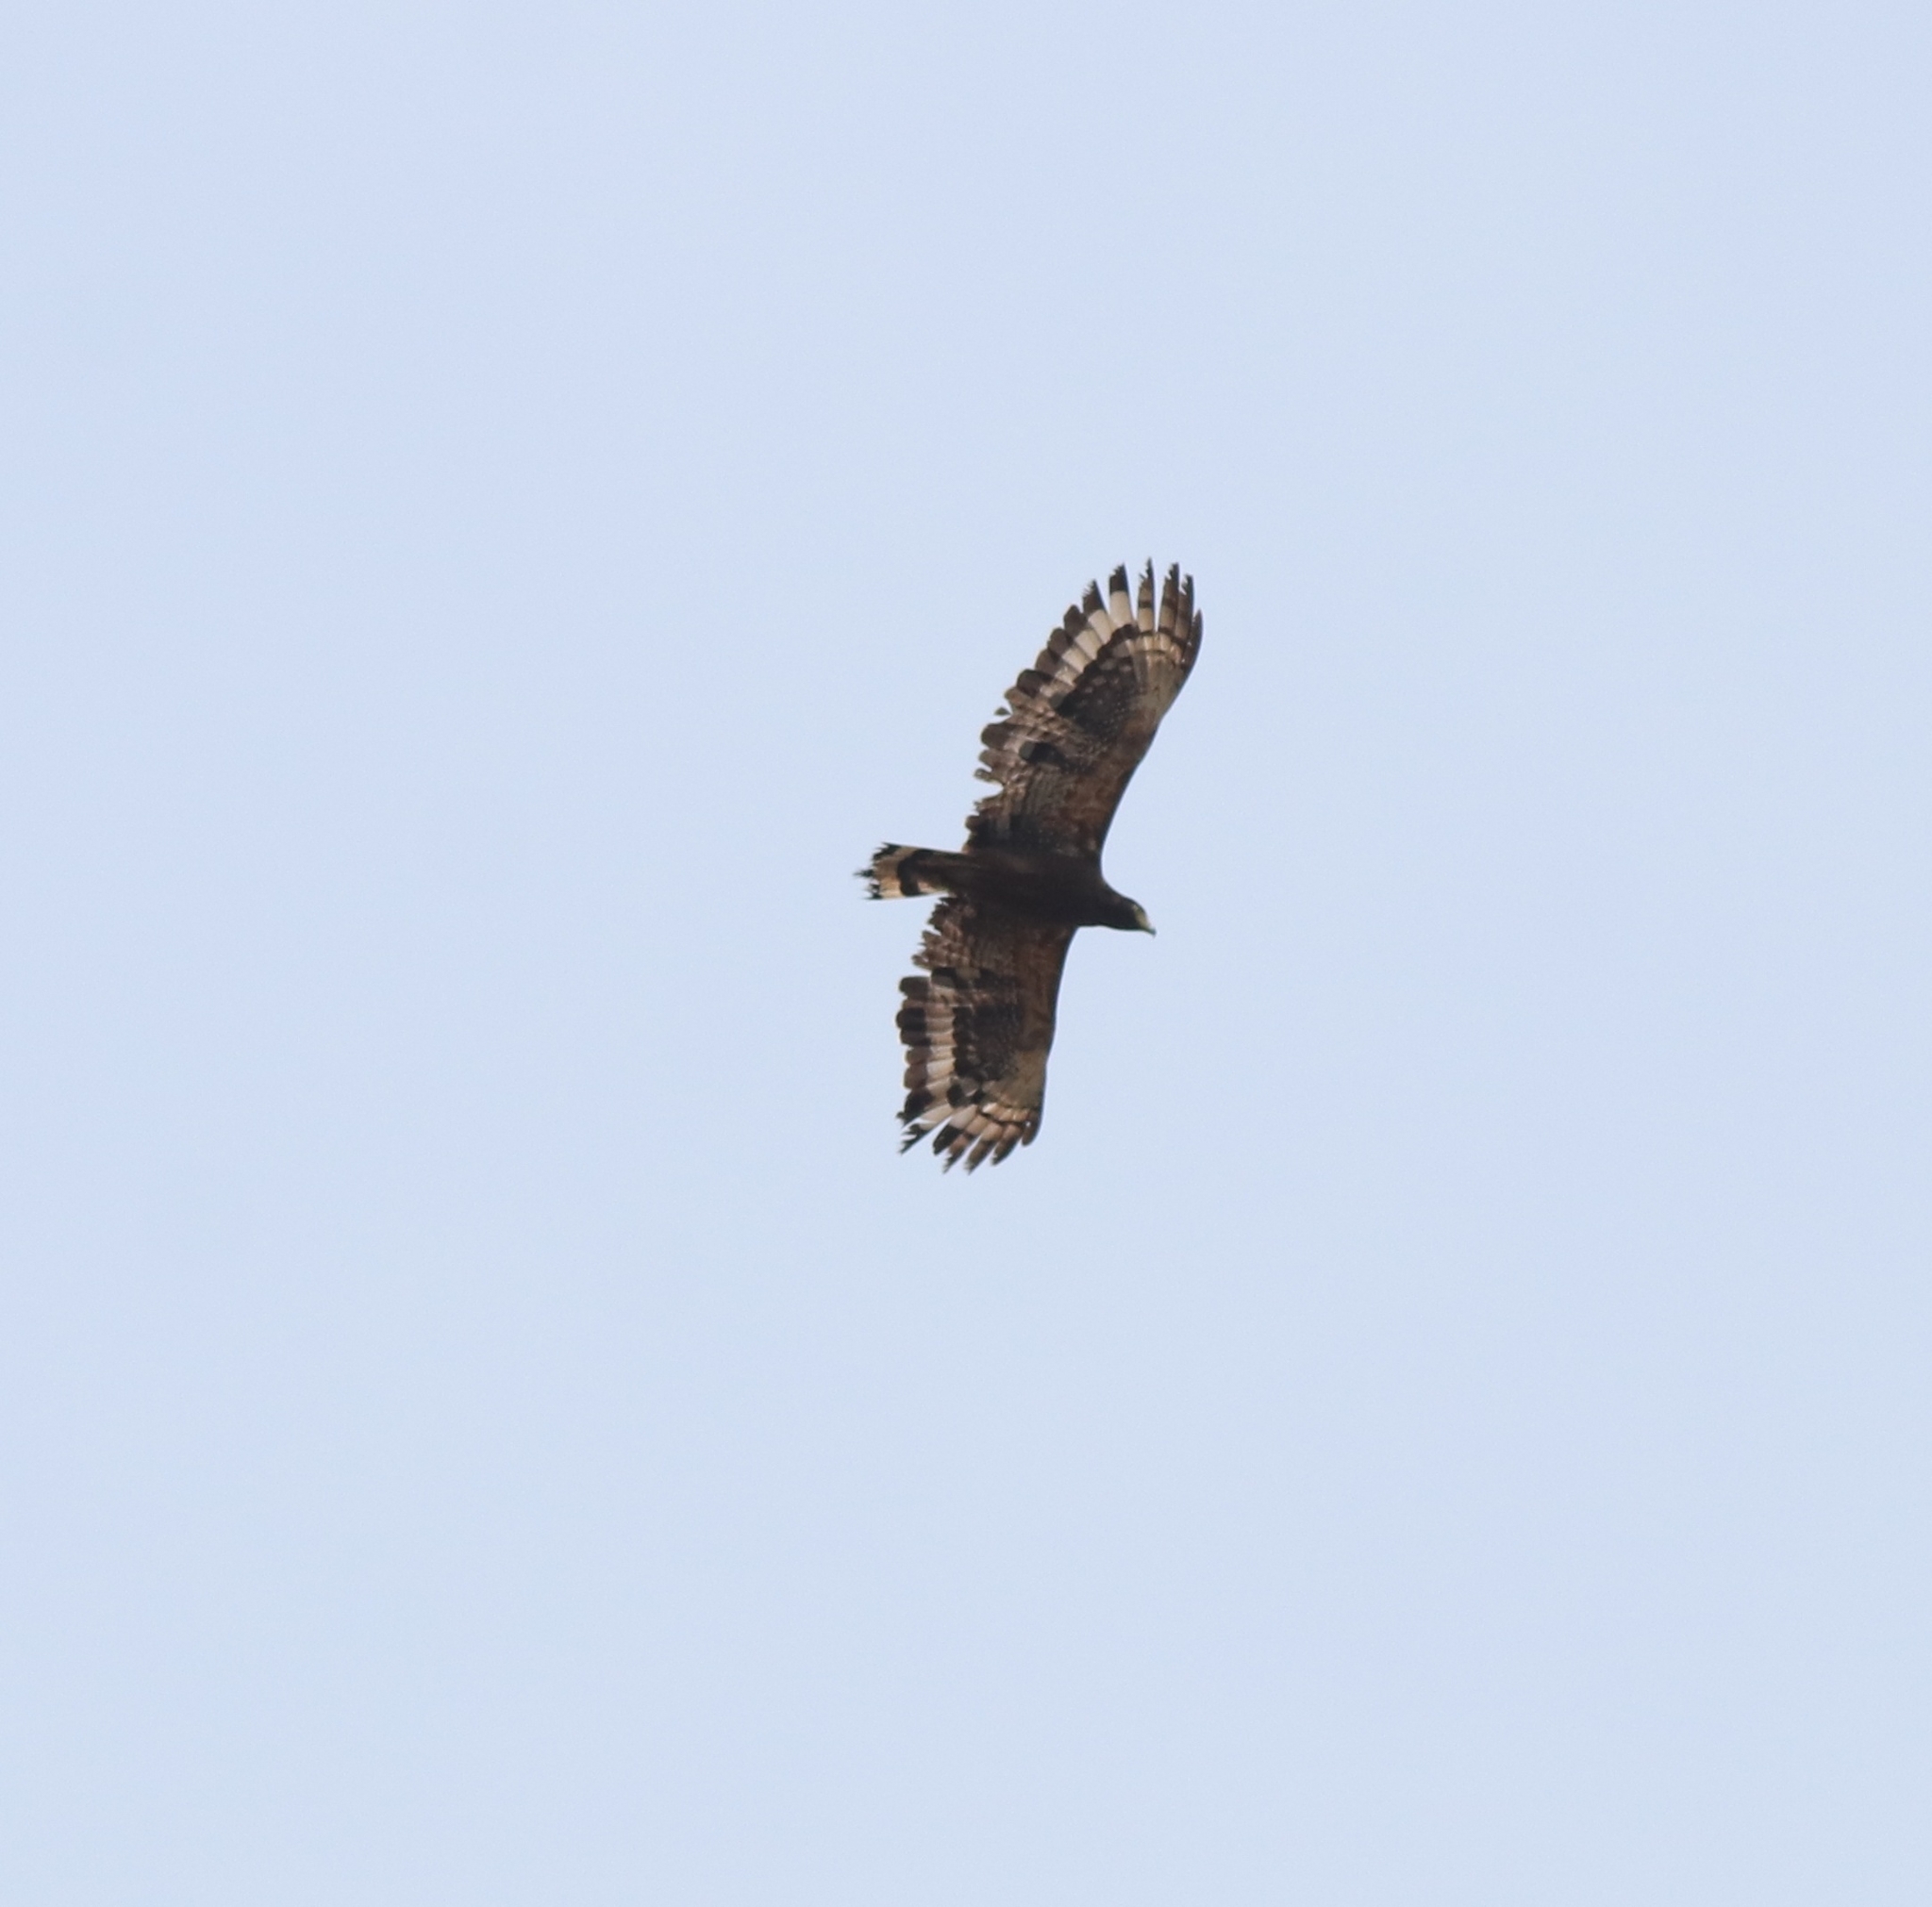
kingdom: Animalia
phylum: Chordata
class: Aves
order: Accipitriformes
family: Accipitridae
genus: Spilornis
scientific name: Spilornis cheela
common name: Crested serpent eagle
